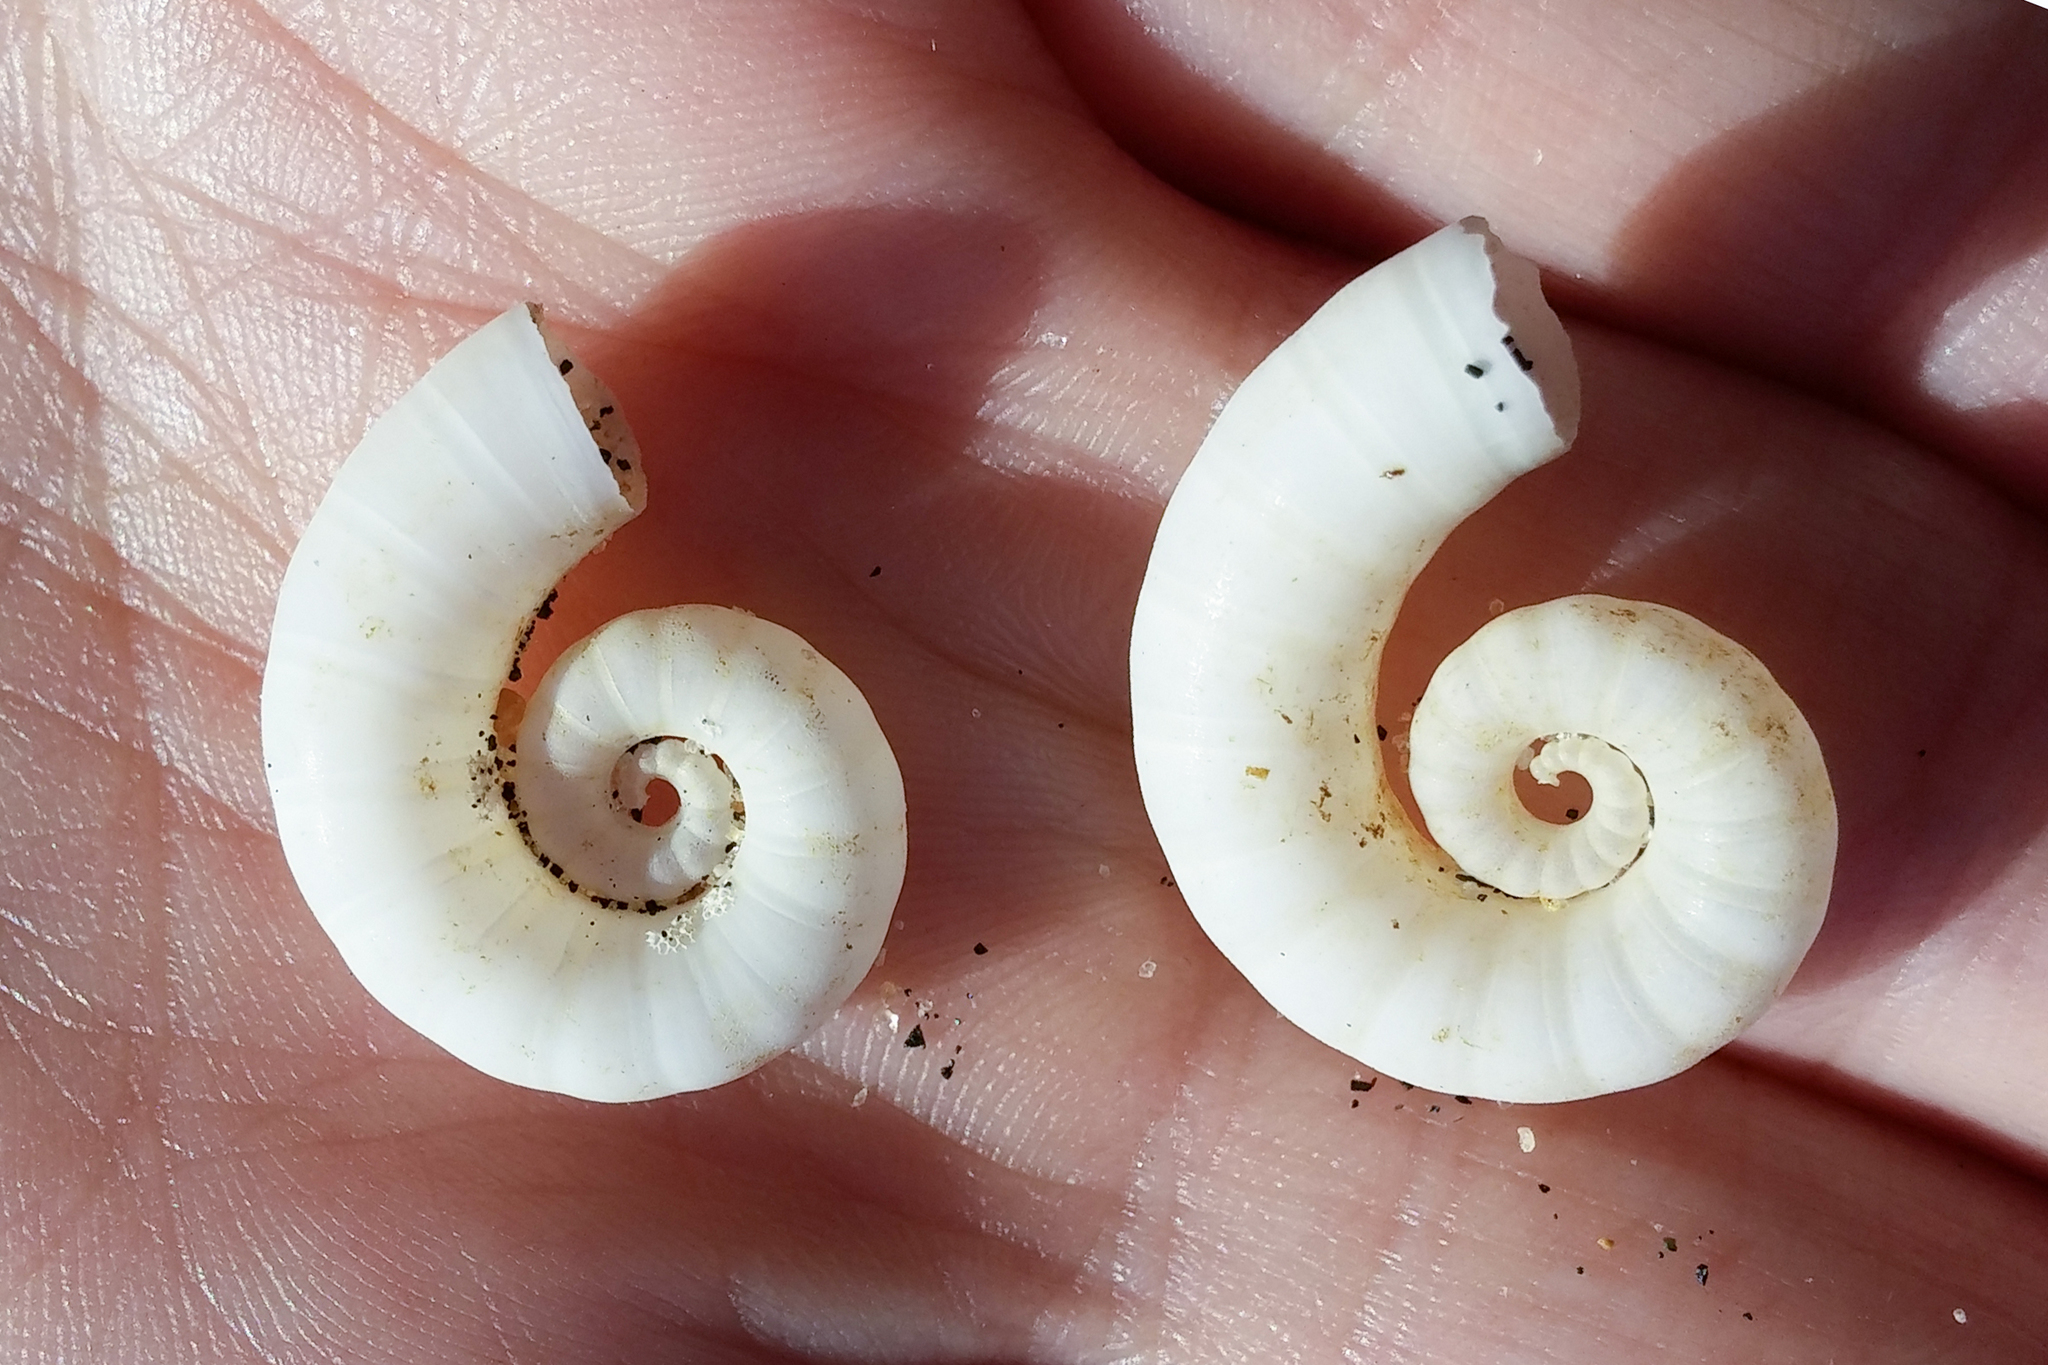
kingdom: Animalia
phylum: Mollusca
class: Cephalopoda
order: Spirulida
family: Spirulidae
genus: Spirula
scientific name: Spirula spirula
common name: Ram's horn squid
